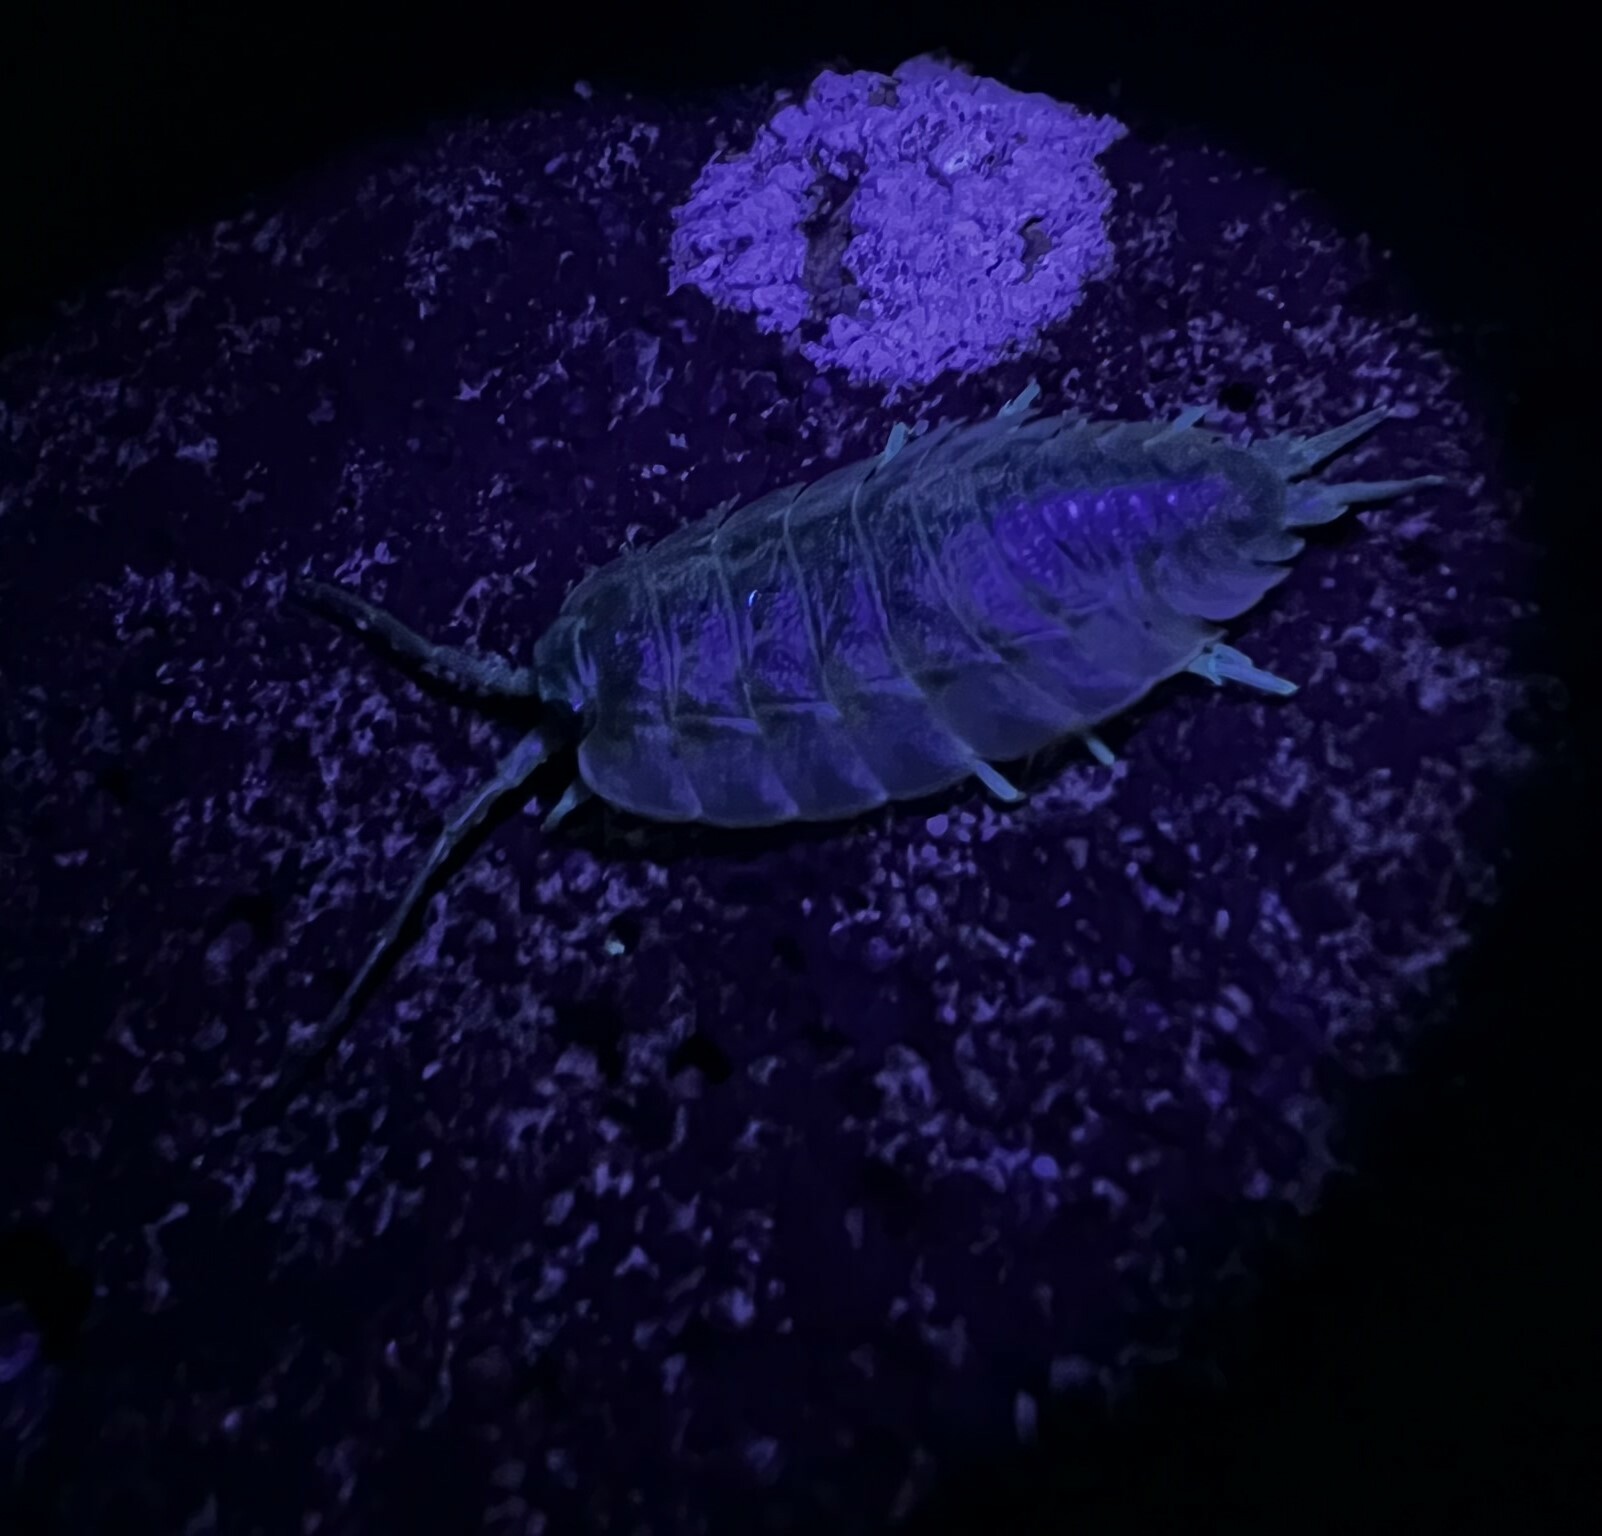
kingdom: Animalia
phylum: Arthropoda
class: Malacostraca
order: Isopoda
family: Ligiidae
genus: Ligia
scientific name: Ligia pallasii
